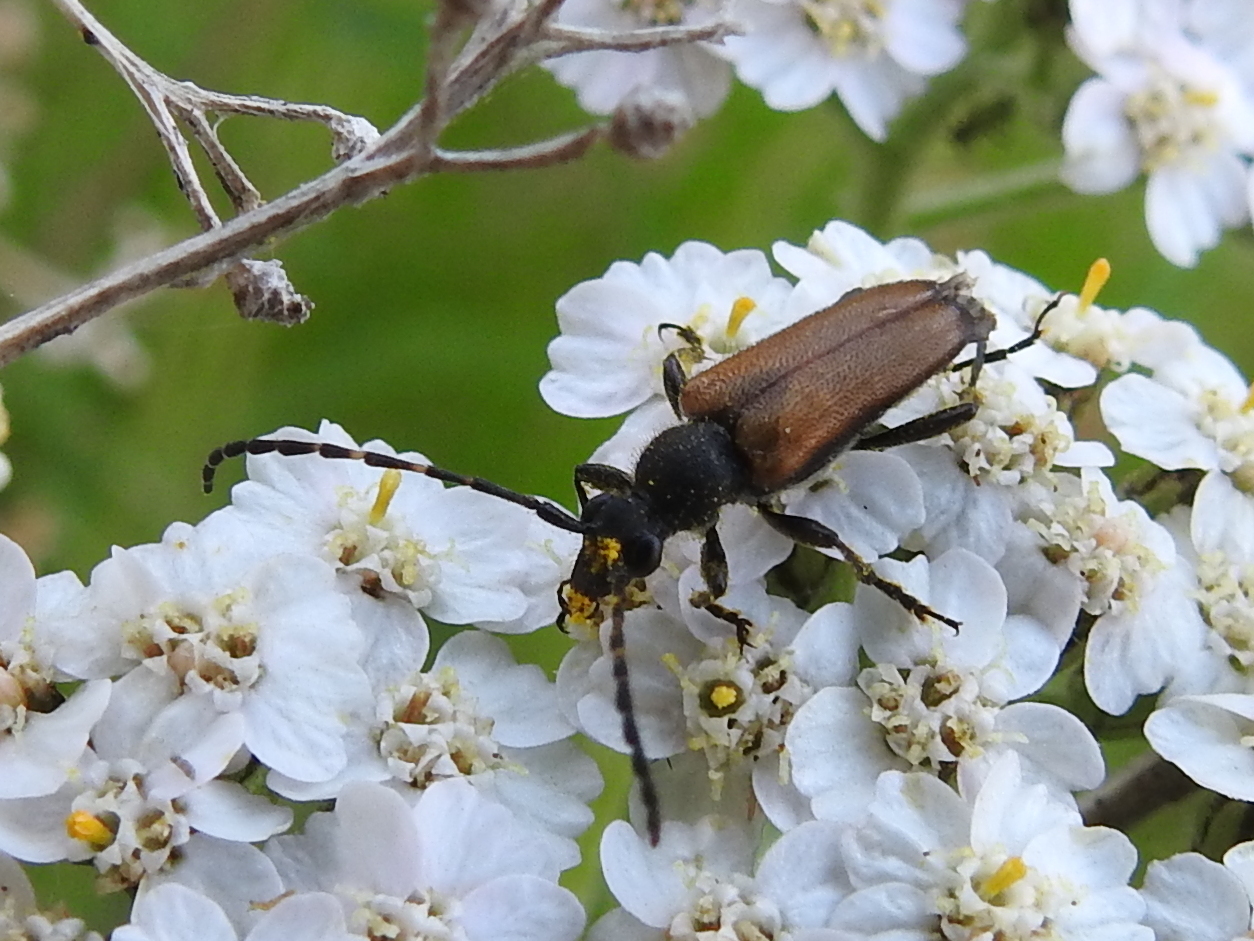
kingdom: Animalia
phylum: Arthropoda
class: Insecta
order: Coleoptera
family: Cerambycidae
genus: Paracorymbia
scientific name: Paracorymbia maculicornis
